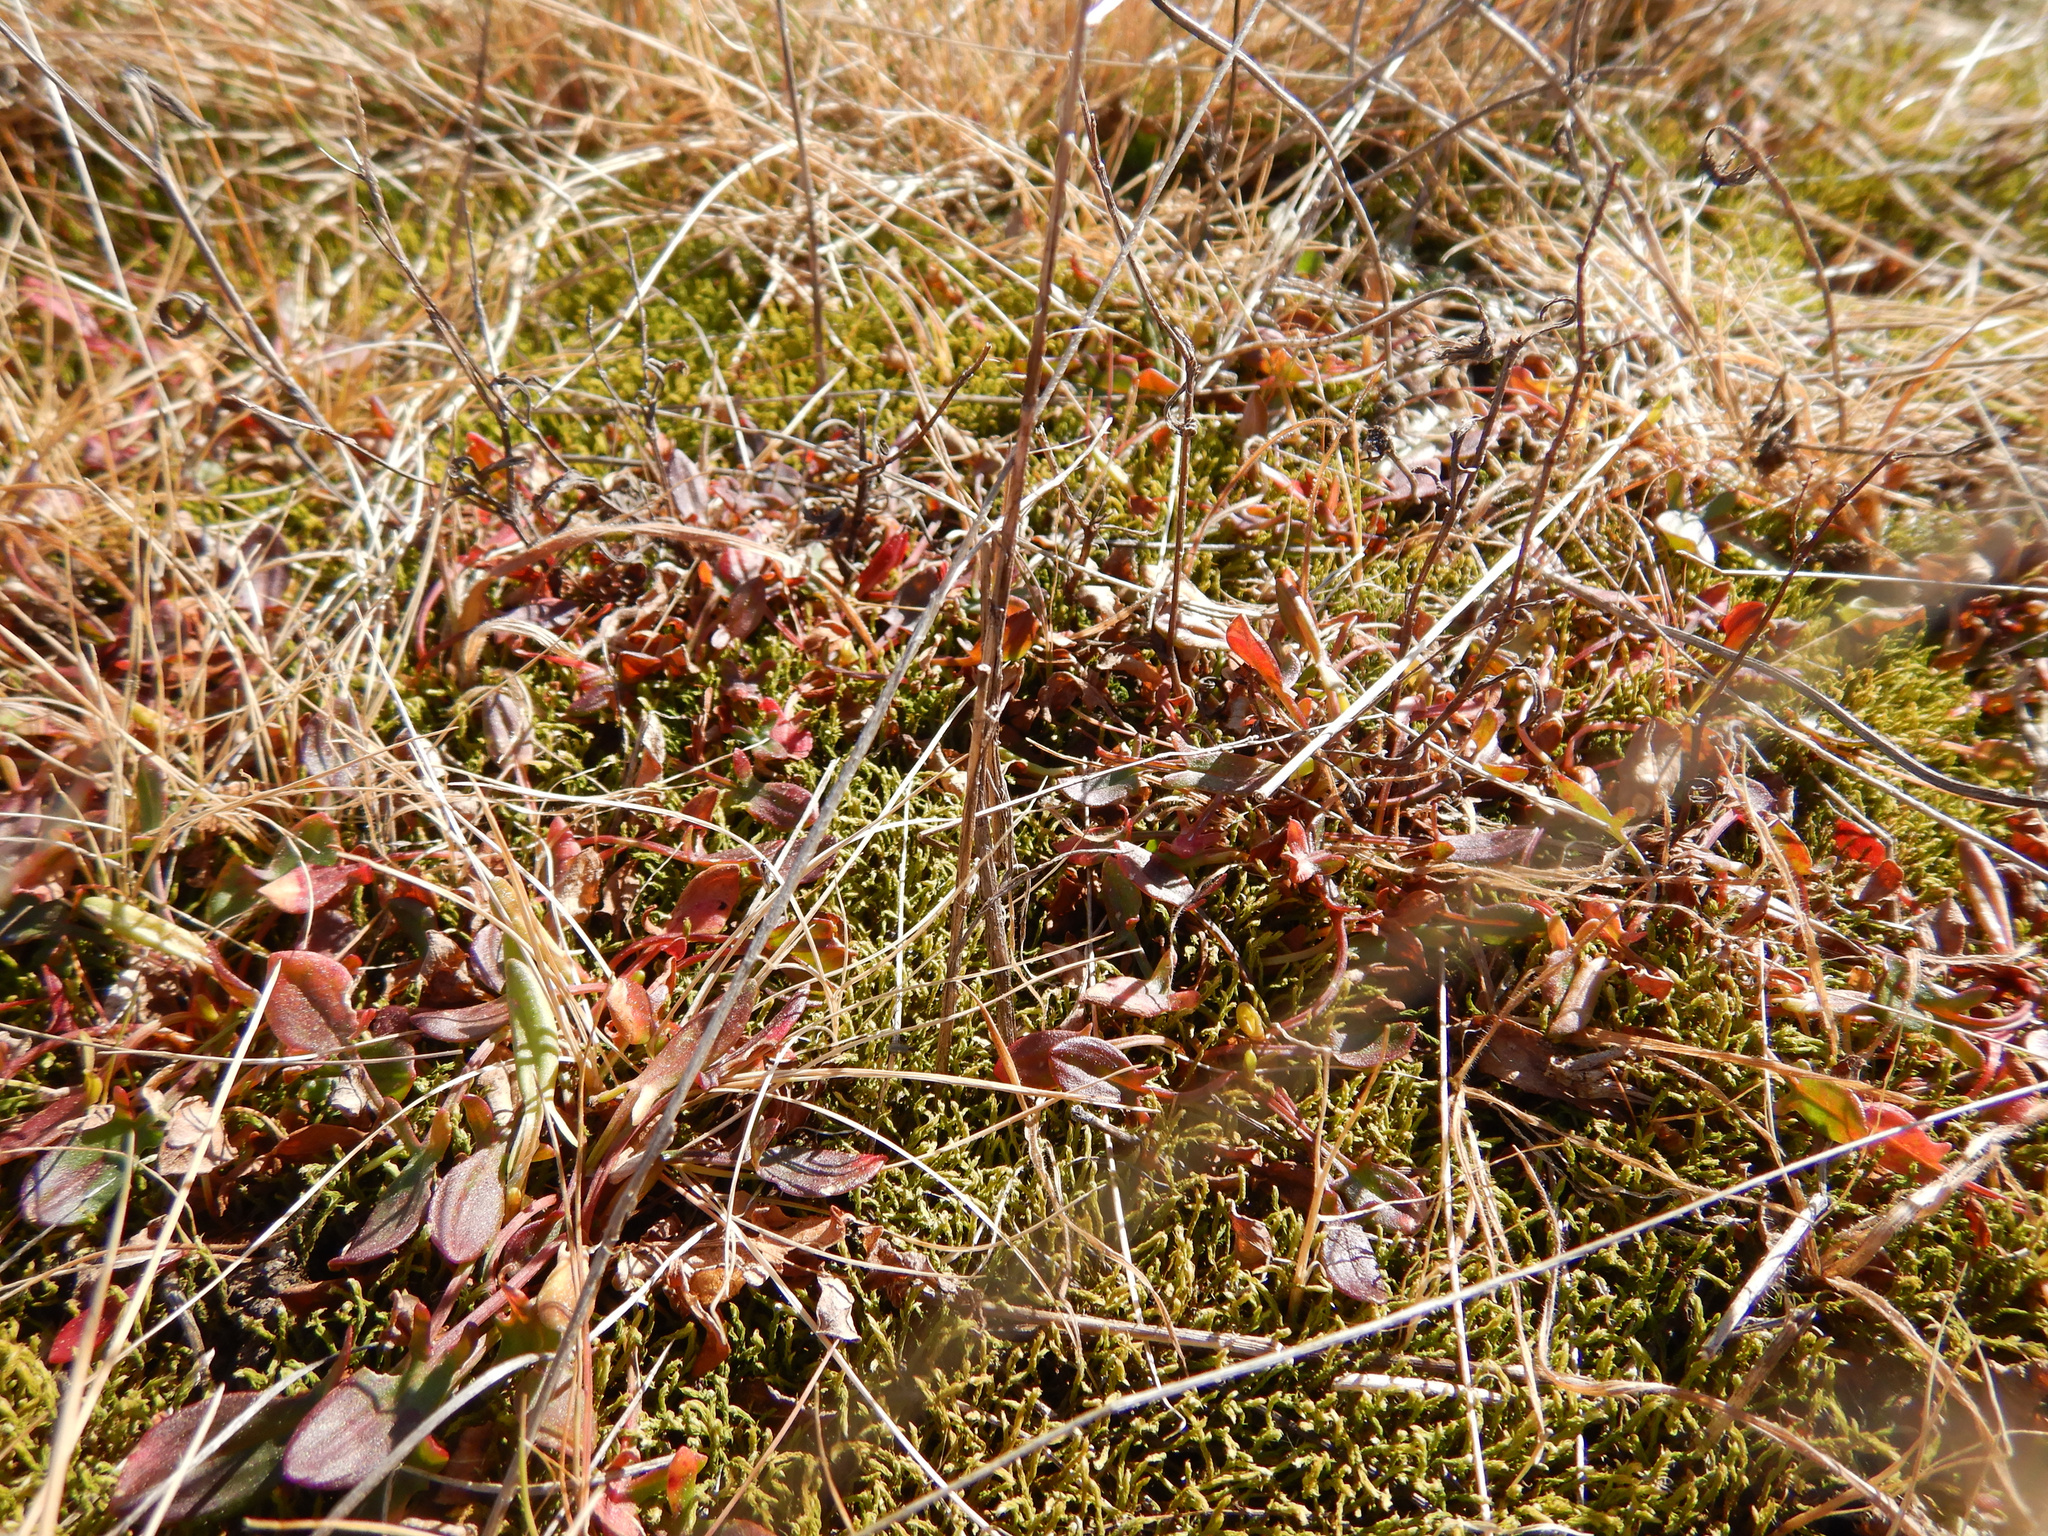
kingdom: Plantae
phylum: Tracheophyta
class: Magnoliopsida
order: Caryophyllales
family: Polygonaceae
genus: Rumex
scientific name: Rumex acetosella
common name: Common sheep sorrel
